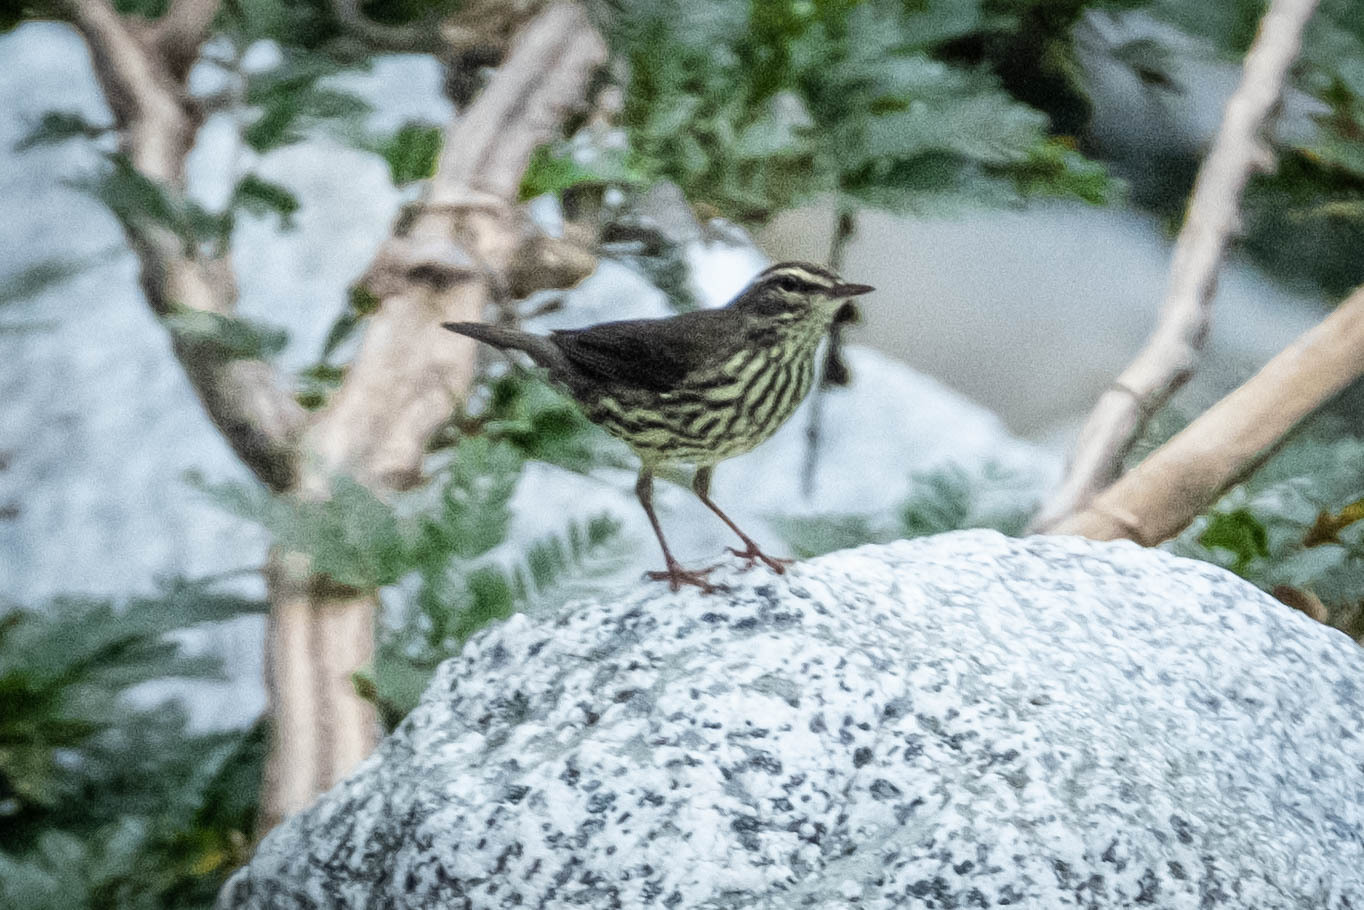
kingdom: Animalia
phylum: Chordata
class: Aves
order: Passeriformes
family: Parulidae
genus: Parkesia
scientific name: Parkesia noveboracensis
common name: Northern waterthrush
